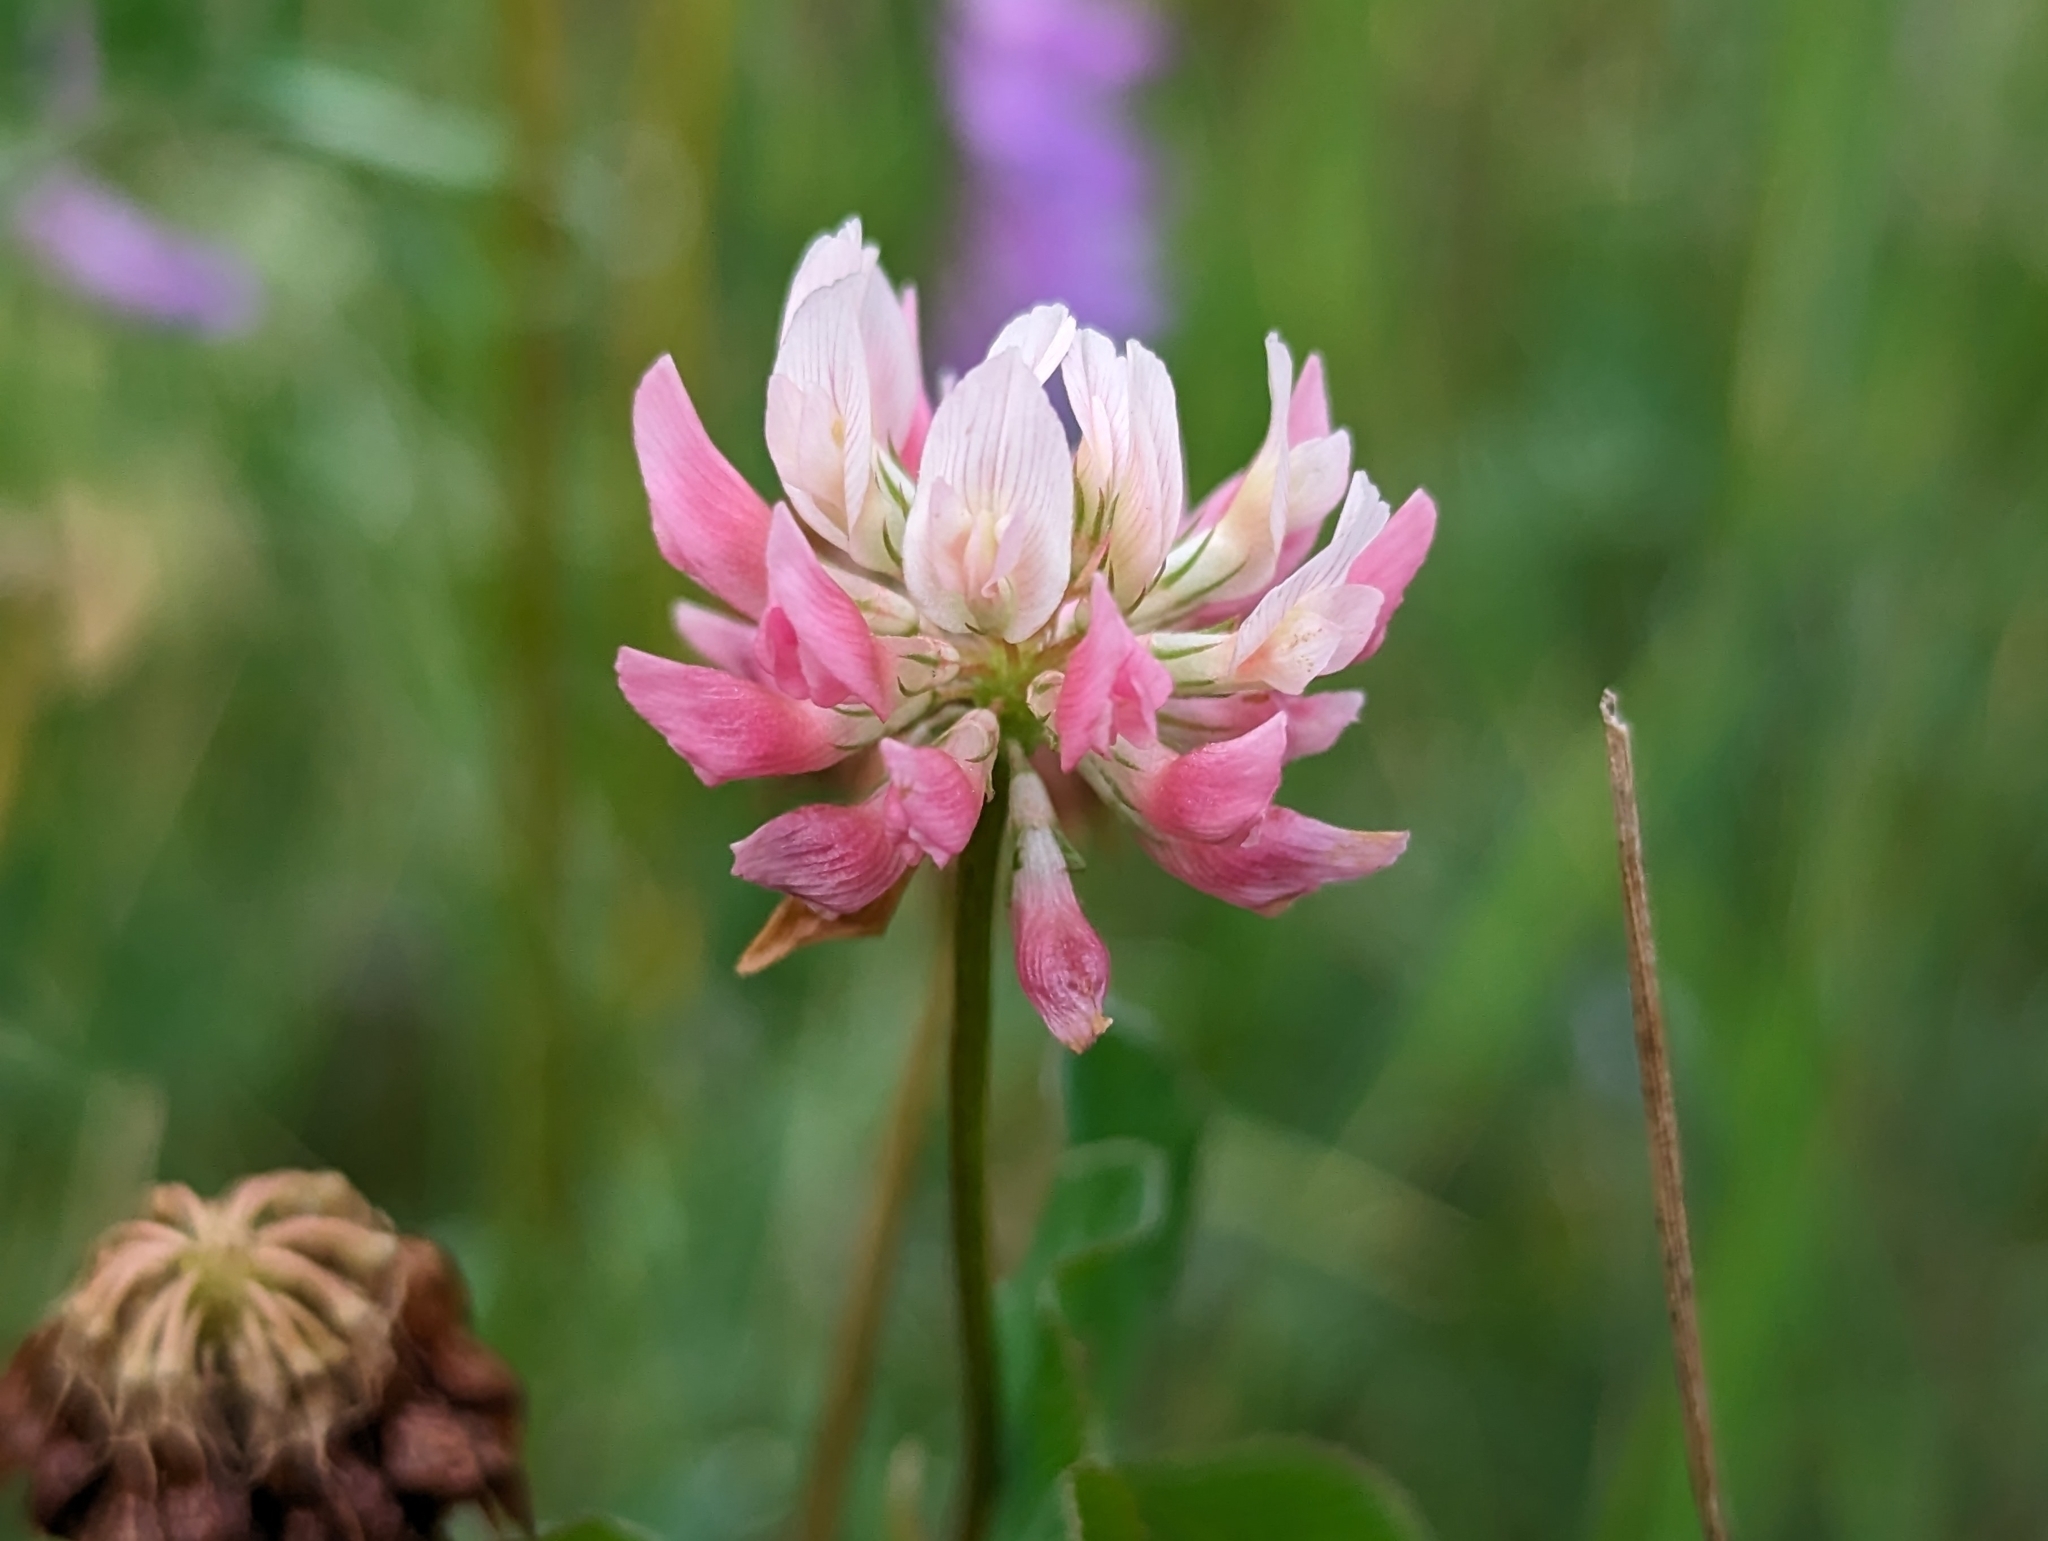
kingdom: Plantae
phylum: Tracheophyta
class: Magnoliopsida
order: Fabales
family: Fabaceae
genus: Trifolium
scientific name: Trifolium hybridum
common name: Alsike clover
